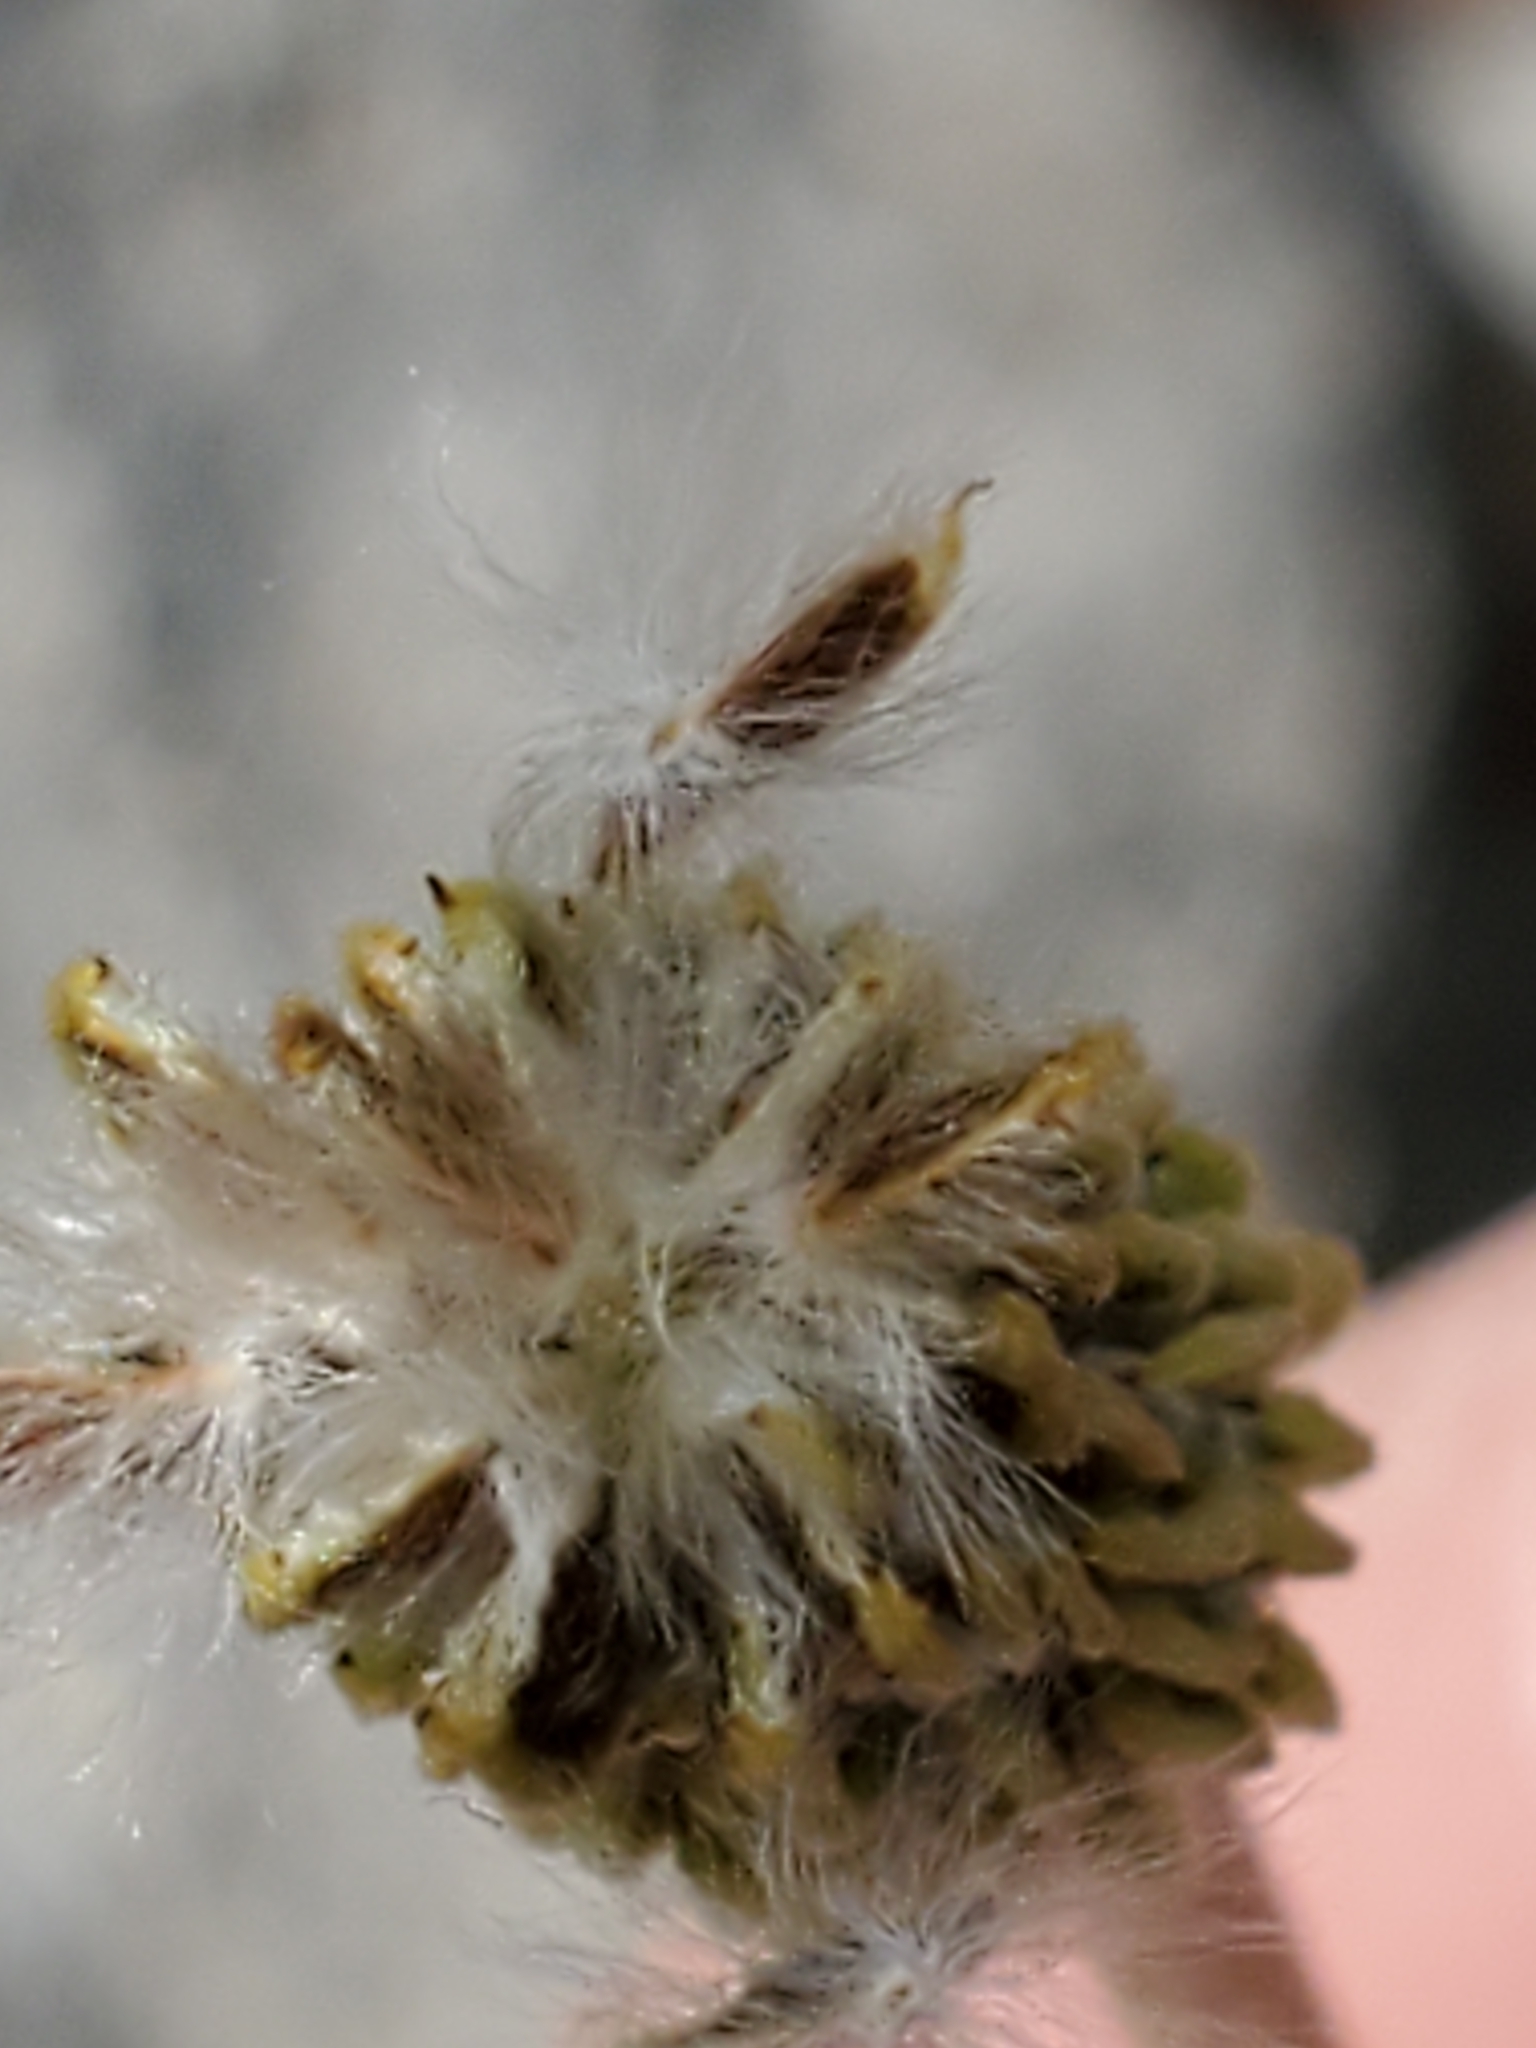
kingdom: Plantae
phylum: Tracheophyta
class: Magnoliopsida
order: Ranunculales
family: Ranunculaceae
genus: Anemone
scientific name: Anemone edwardsiana
